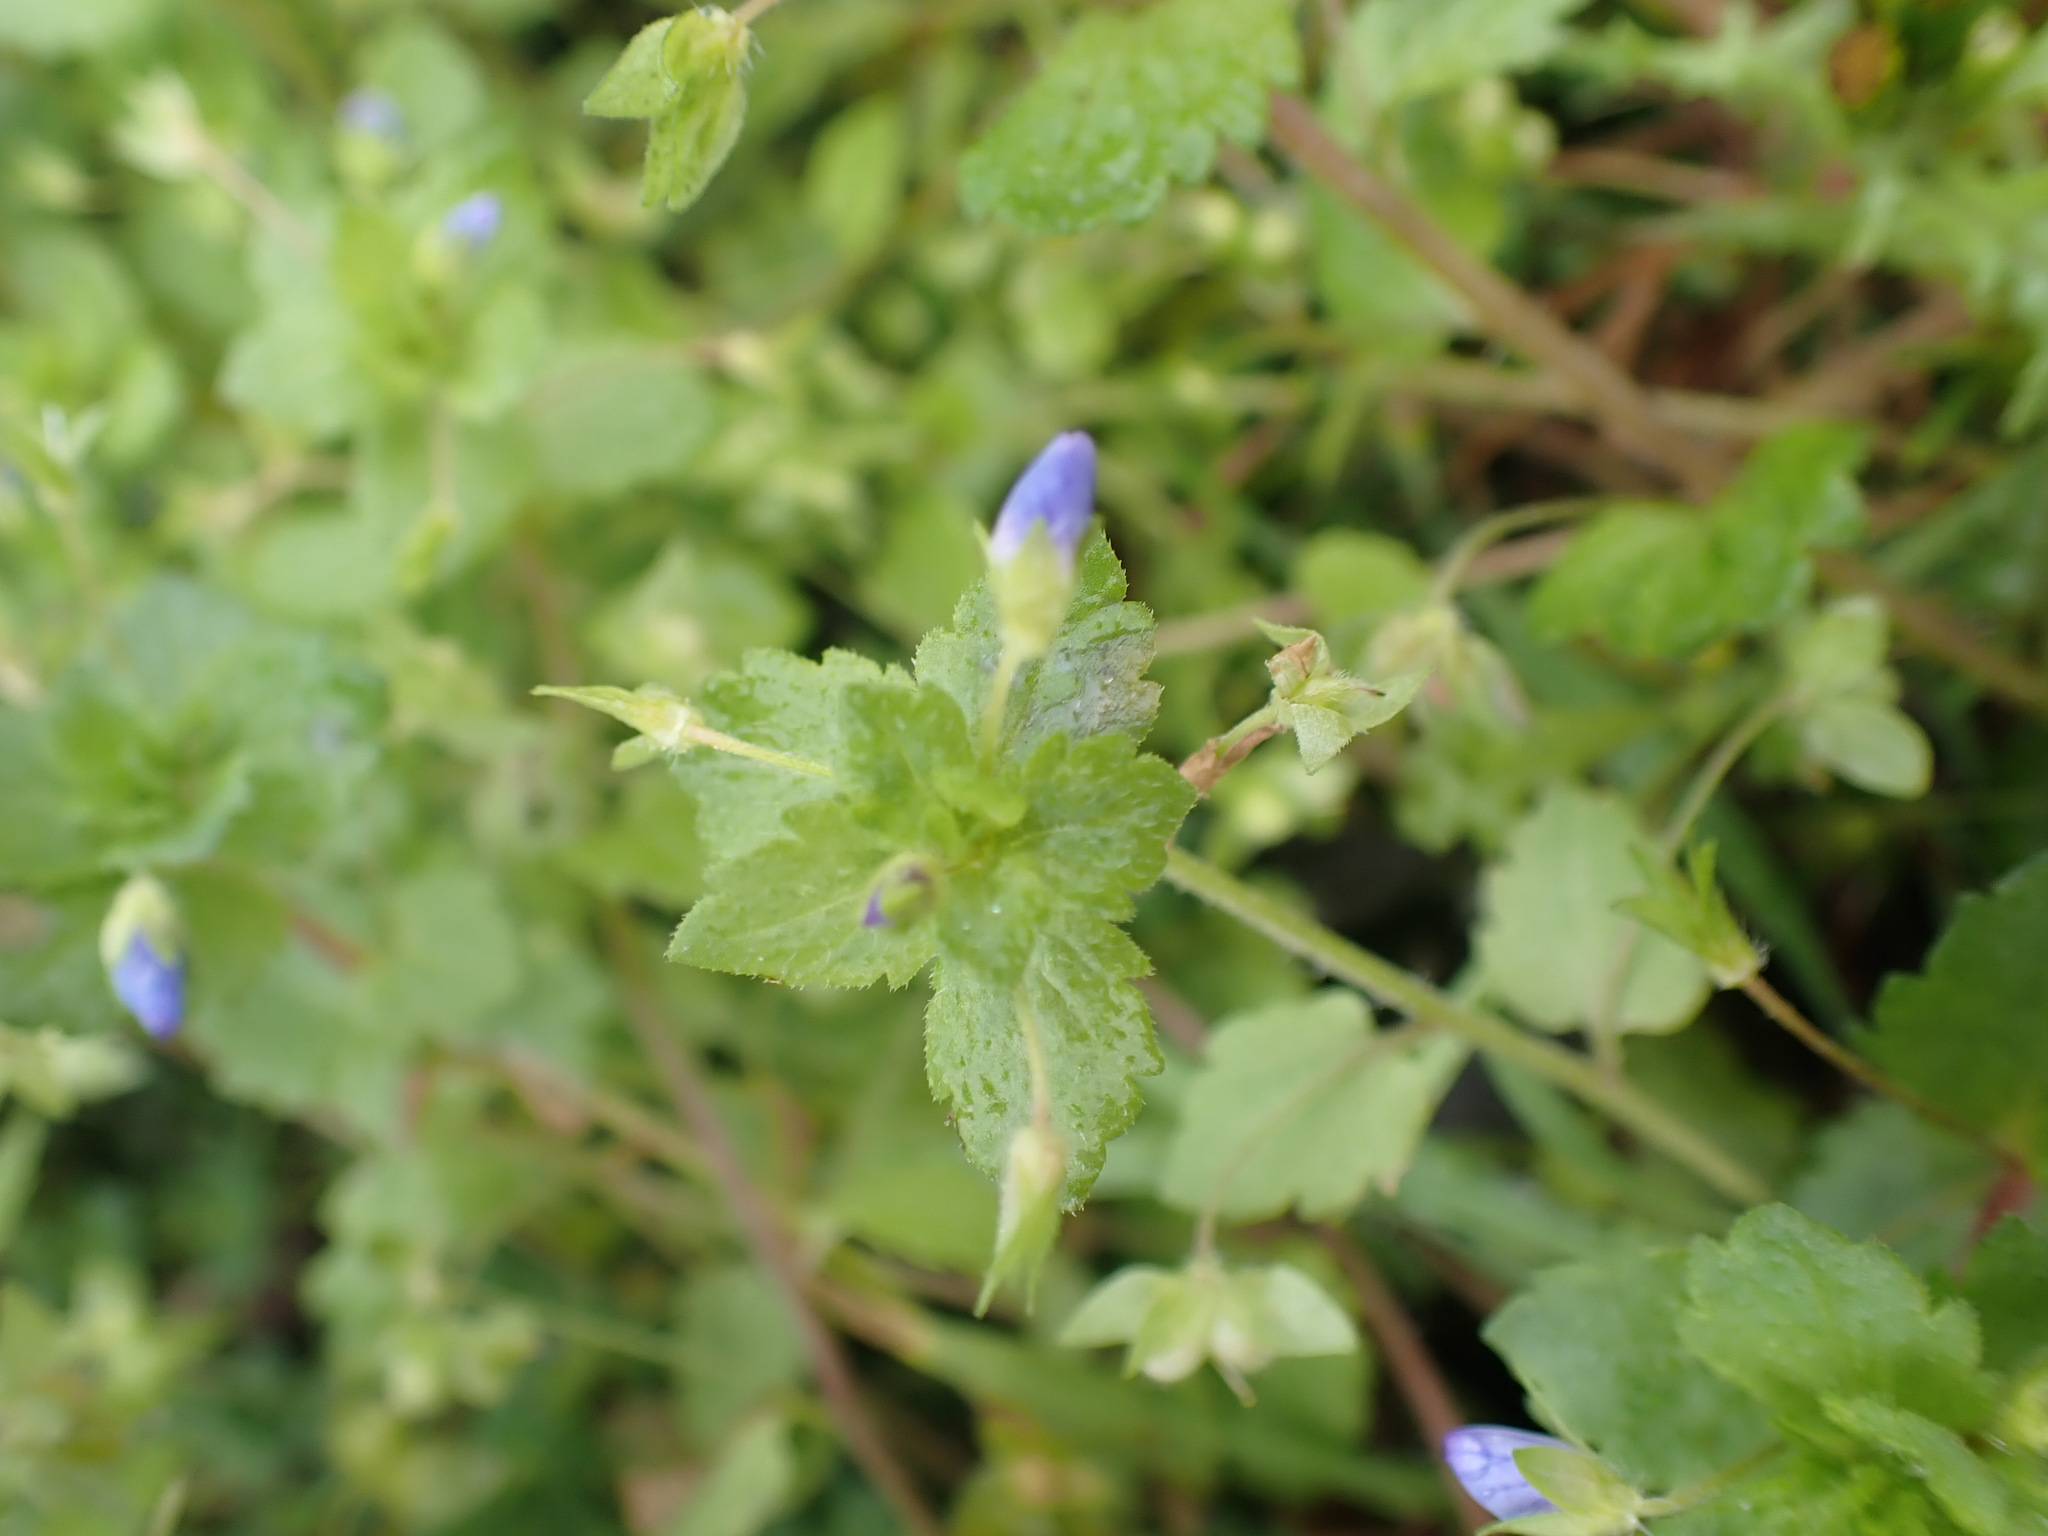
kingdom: Plantae
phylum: Tracheophyta
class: Magnoliopsida
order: Lamiales
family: Plantaginaceae
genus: Veronica
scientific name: Veronica persica
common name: Common field-speedwell
